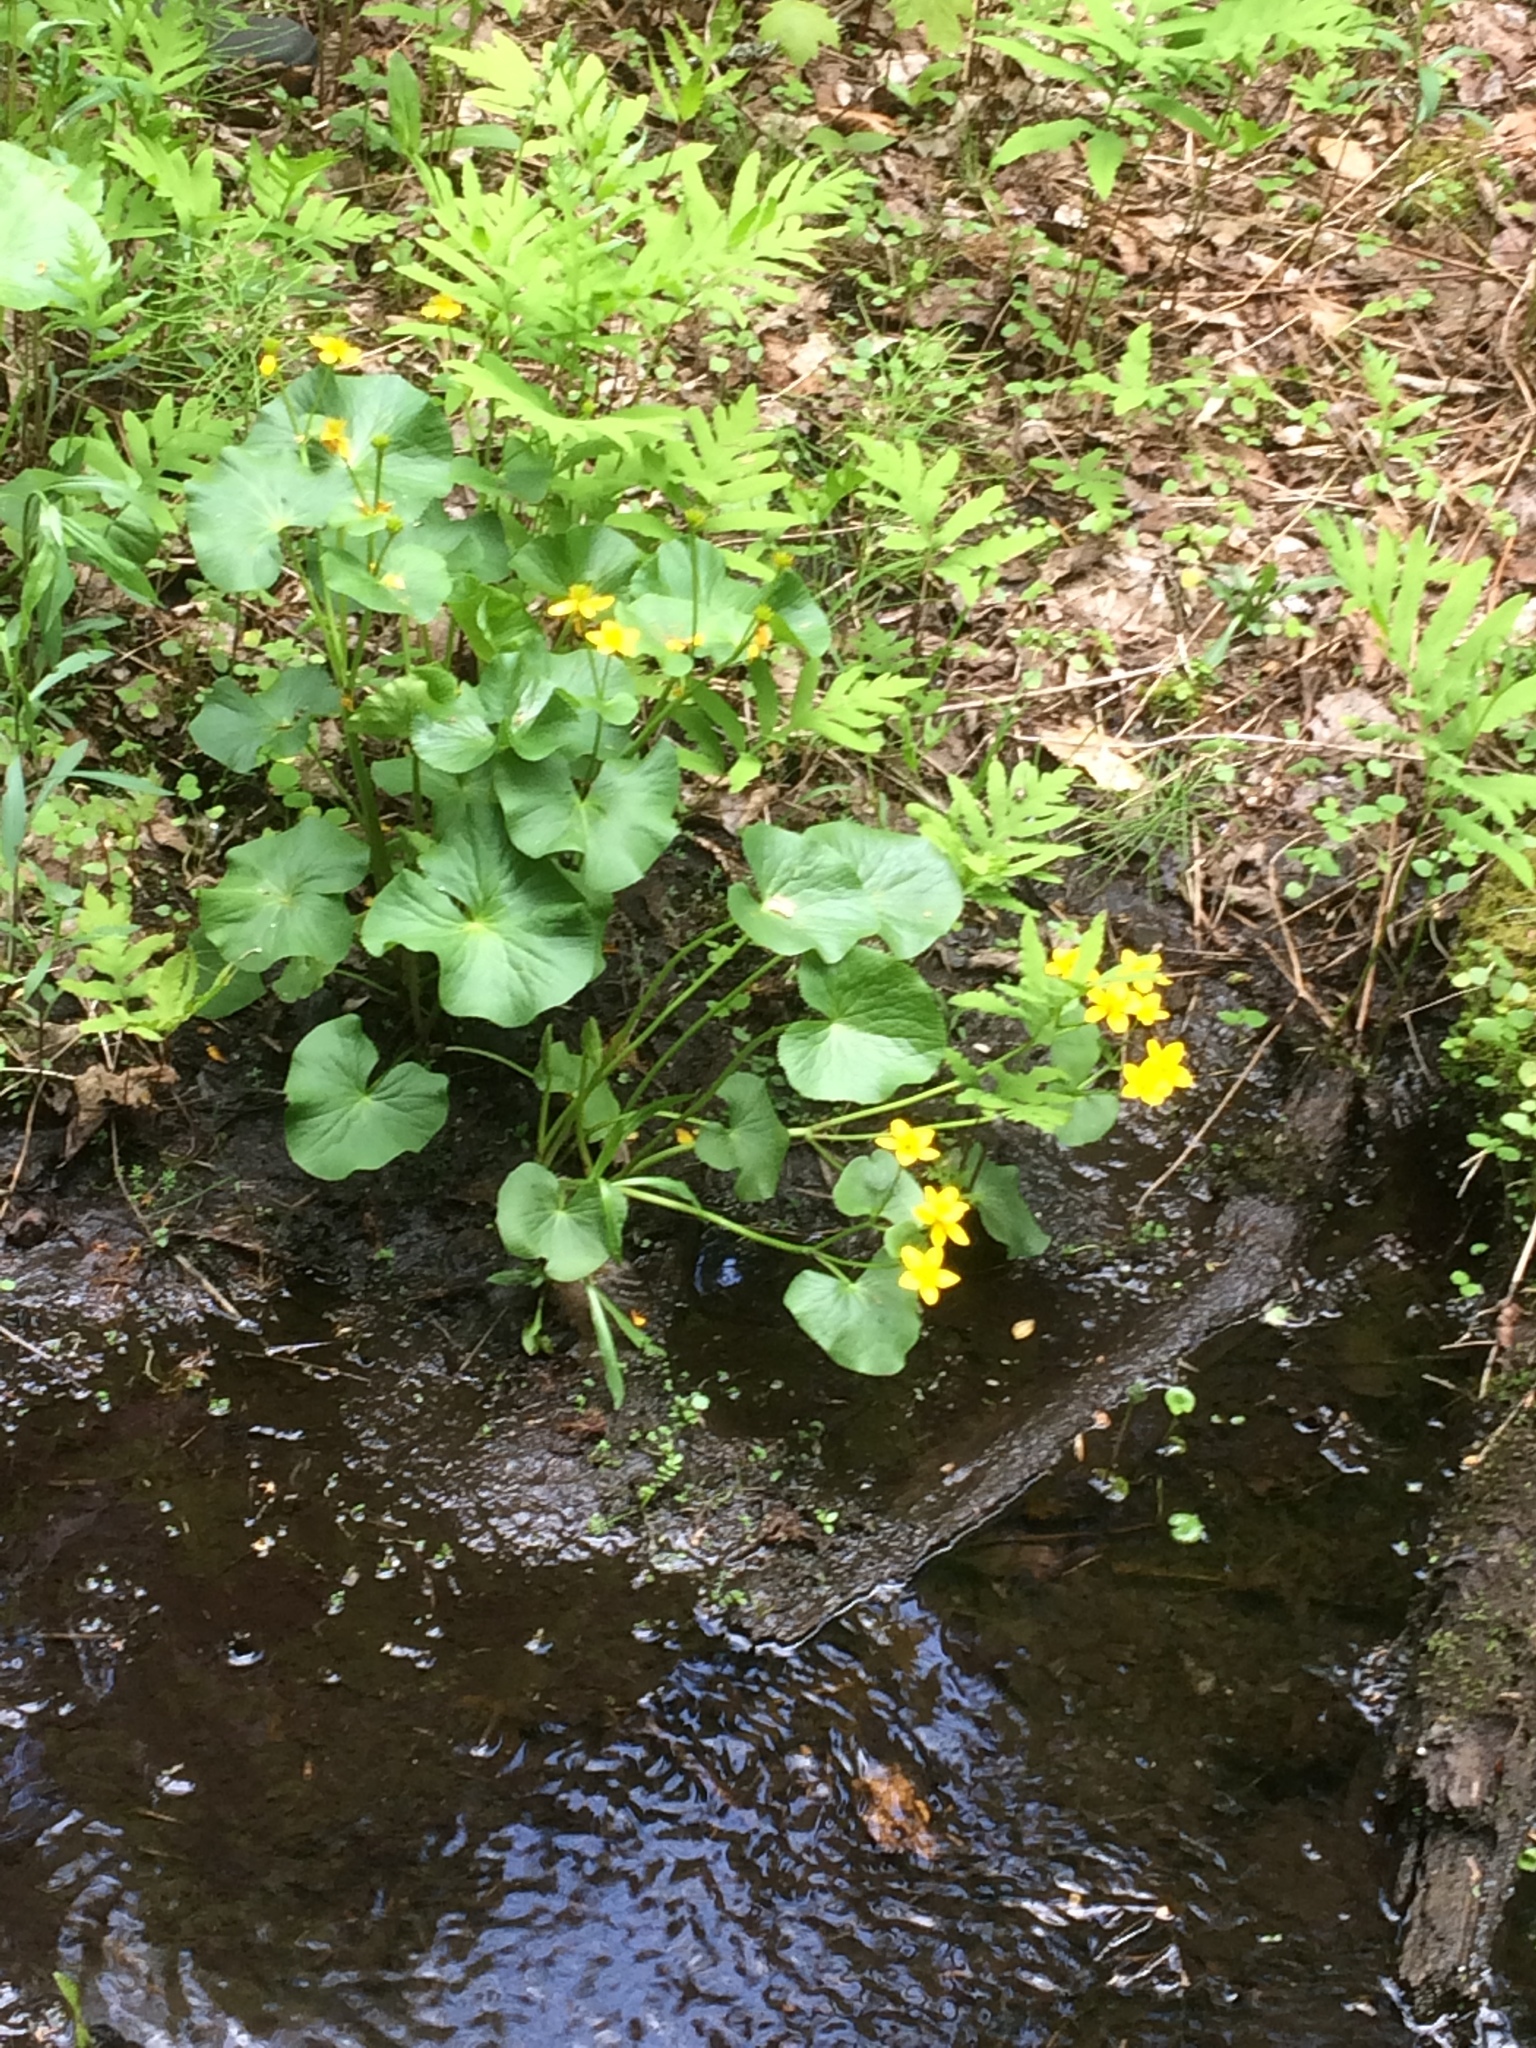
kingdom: Plantae
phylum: Tracheophyta
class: Magnoliopsida
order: Ranunculales
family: Ranunculaceae
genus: Caltha
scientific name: Caltha palustris
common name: Marsh marigold
